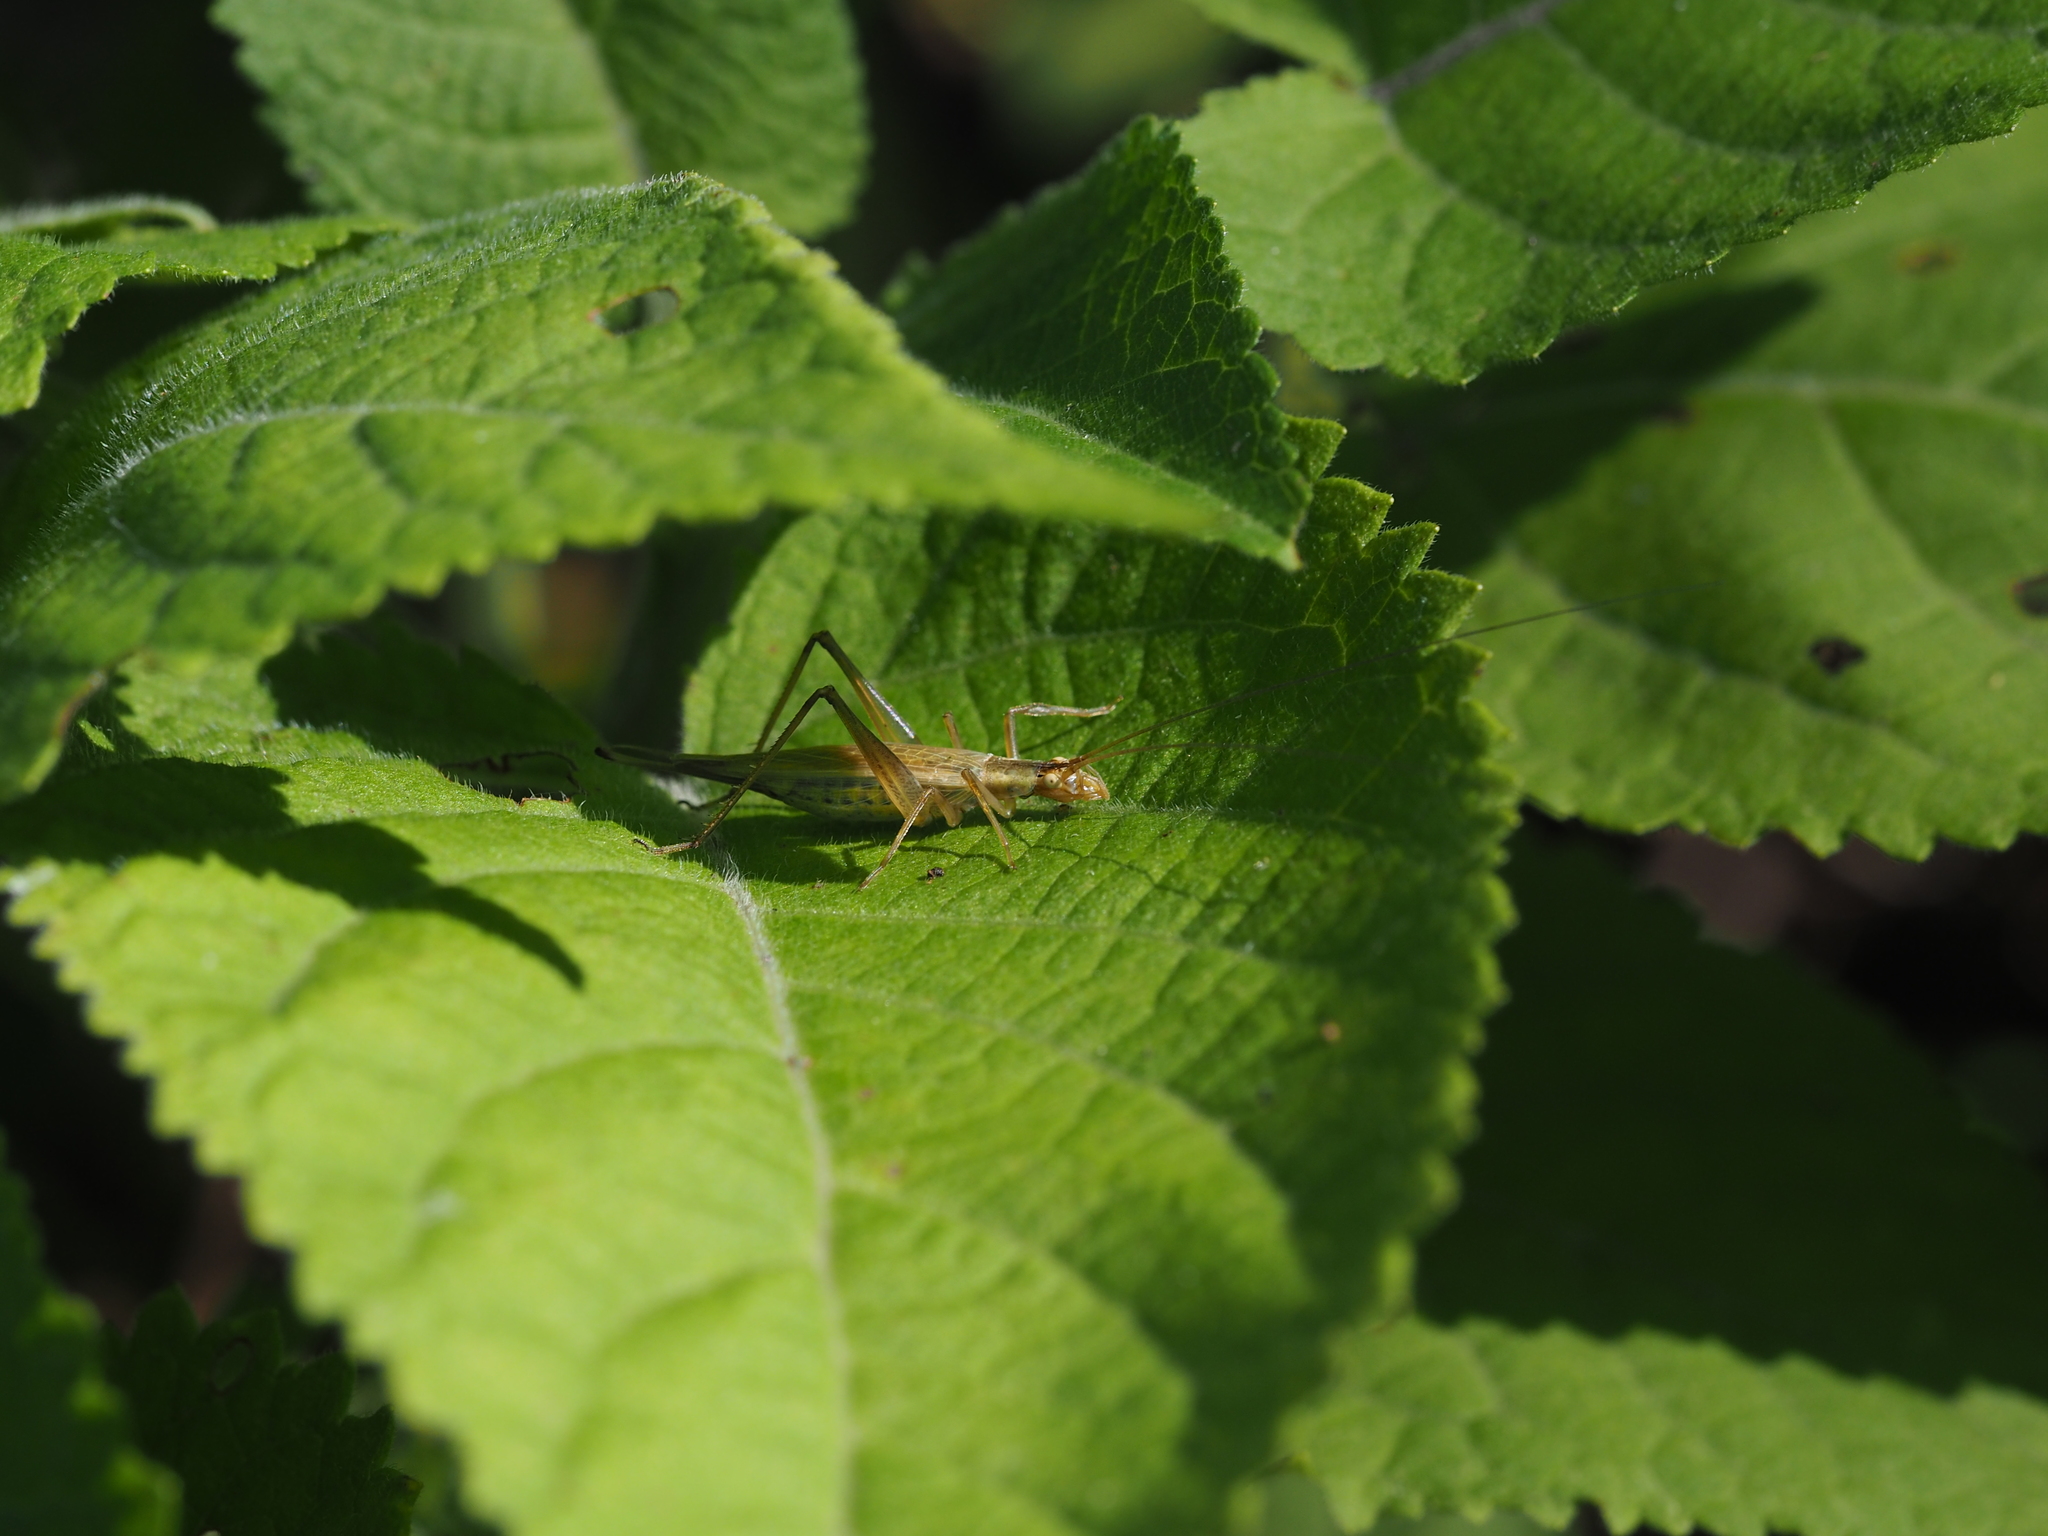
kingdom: Animalia
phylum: Arthropoda
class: Insecta
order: Orthoptera
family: Gryllidae
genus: Oecanthus
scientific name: Oecanthus pellucens
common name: Tree-cricket
